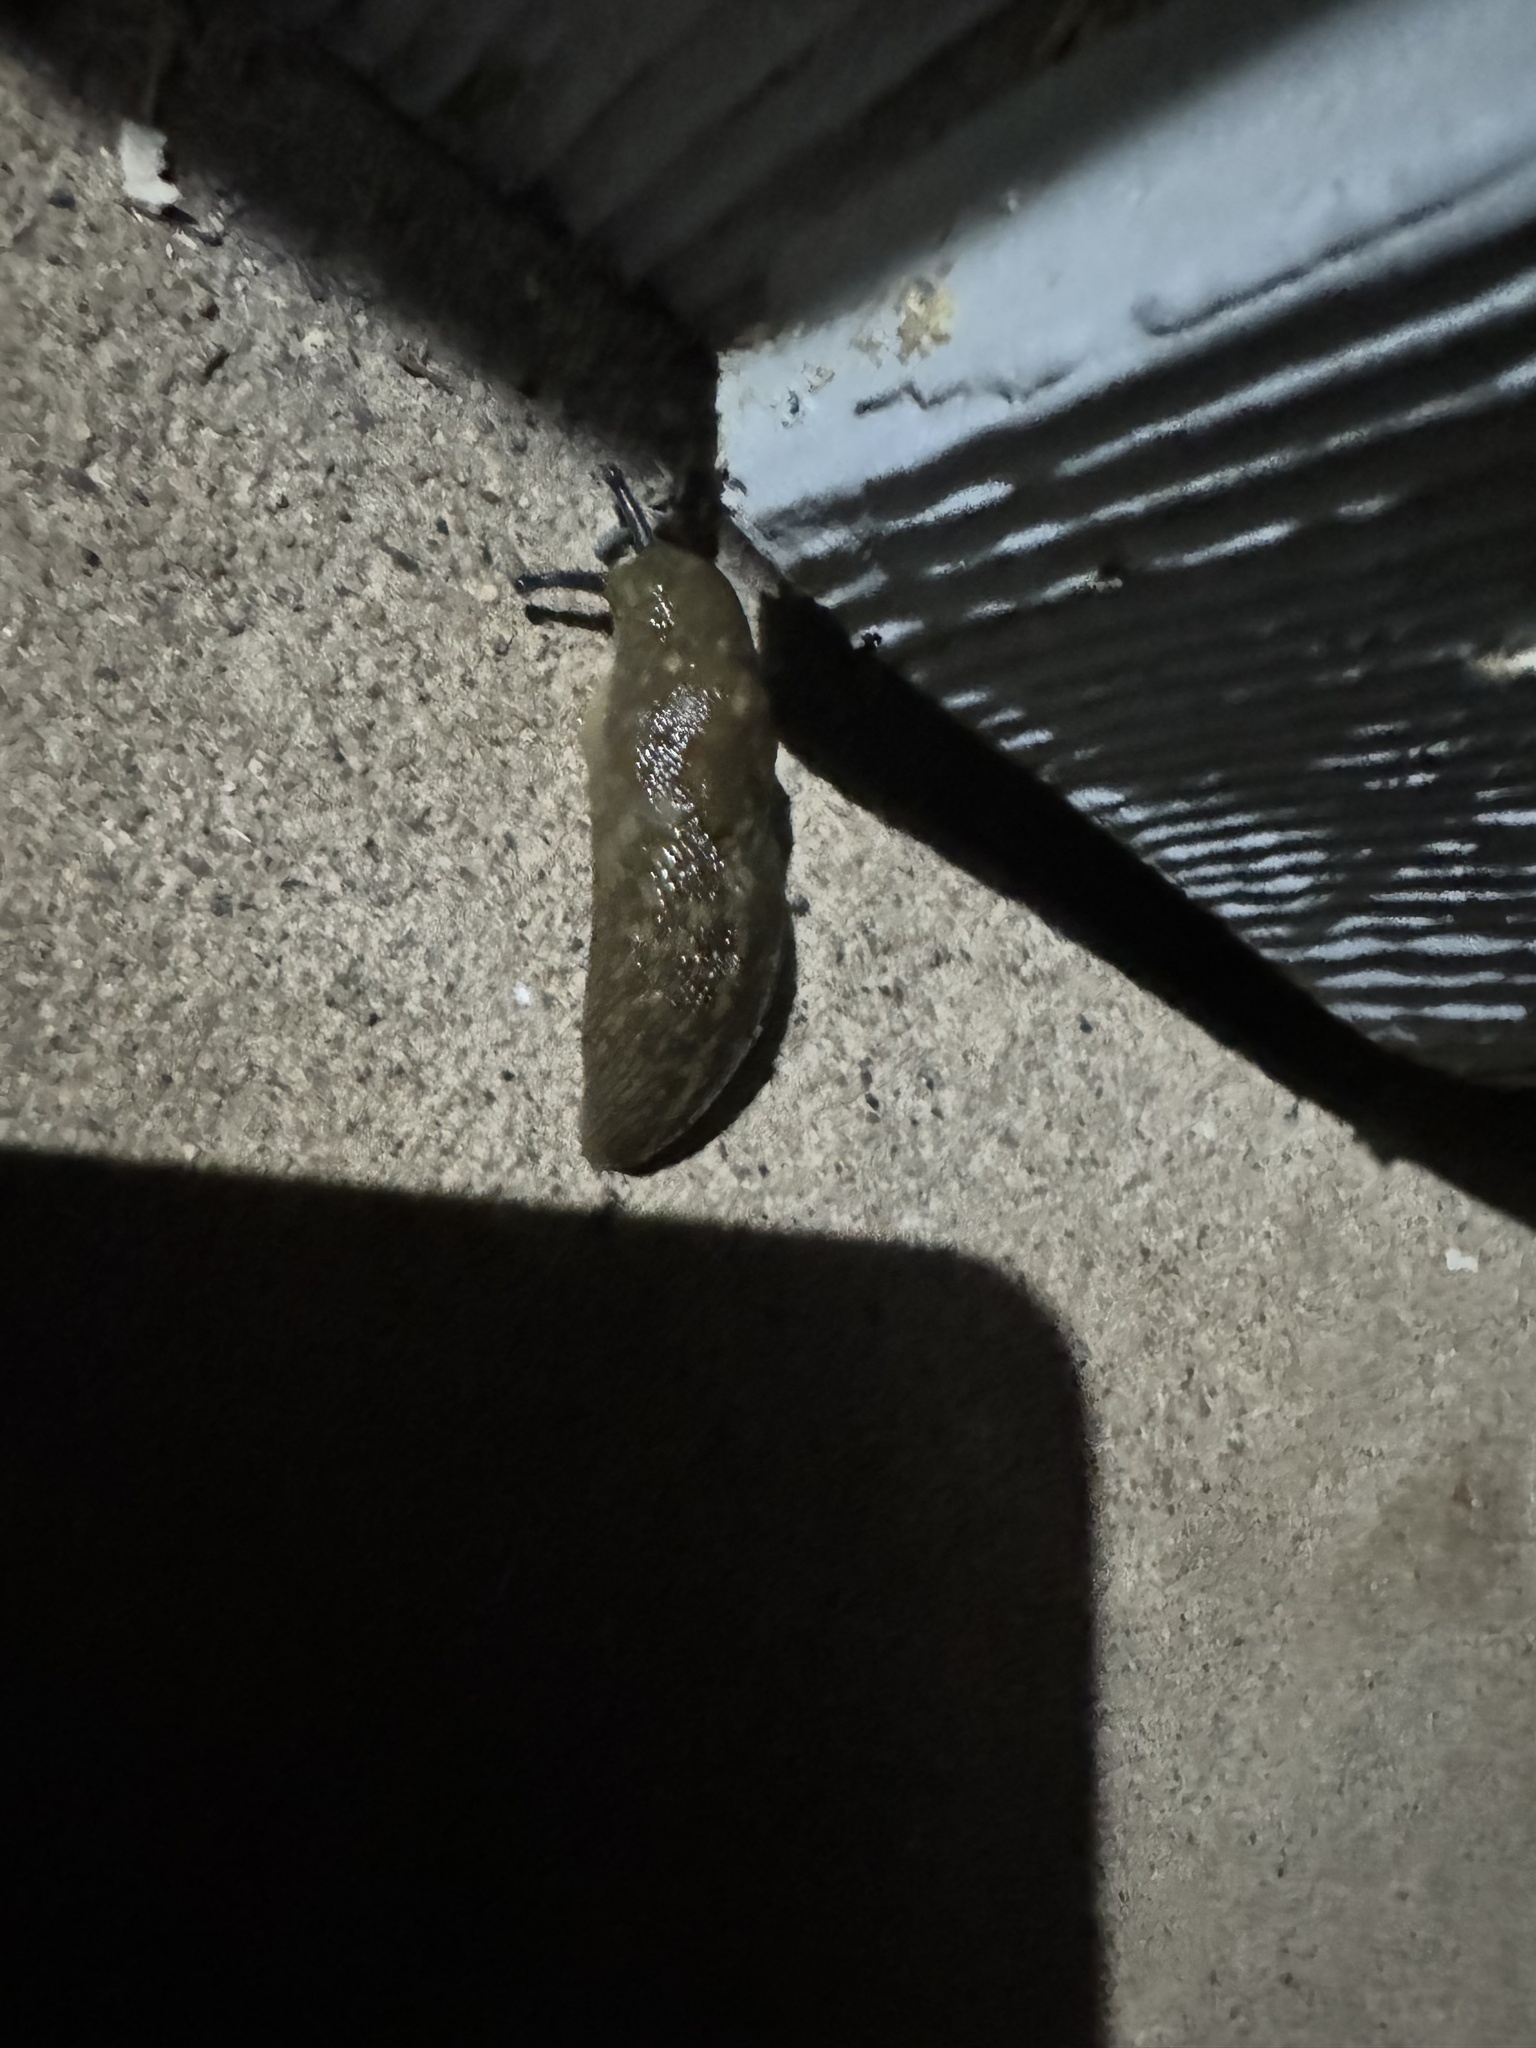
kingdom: Animalia
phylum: Mollusca
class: Gastropoda
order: Stylommatophora
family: Limacidae
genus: Limacus
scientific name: Limacus flavus
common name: Yellow gardenslug
